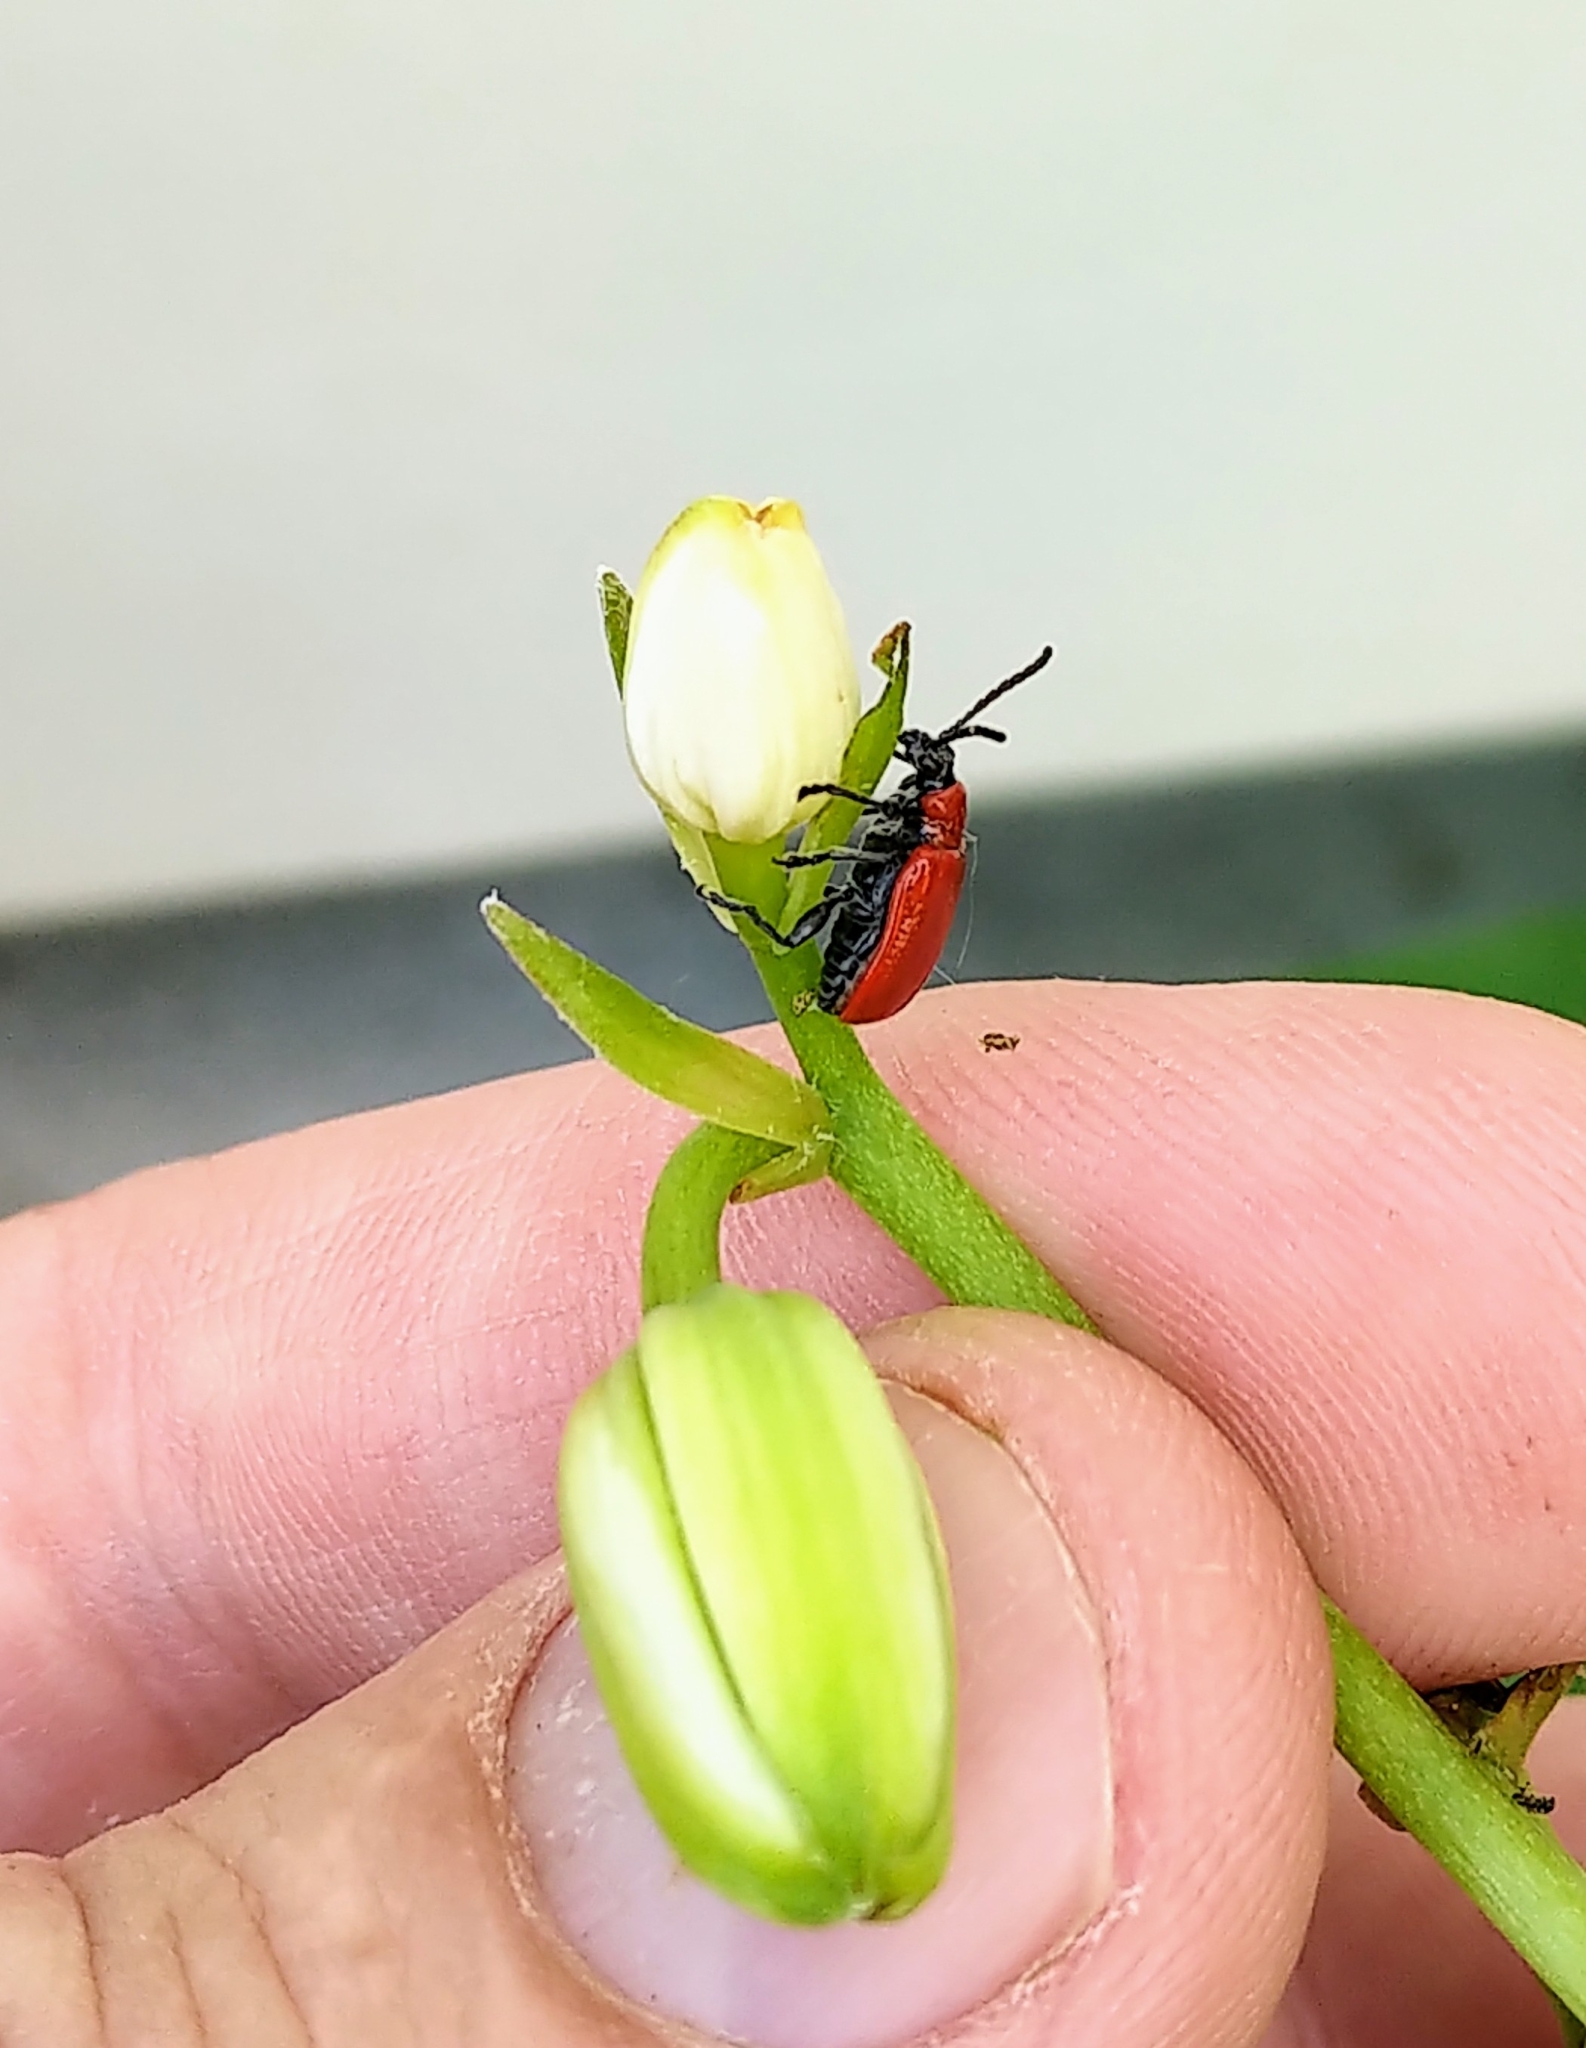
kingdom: Animalia
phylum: Arthropoda
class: Insecta
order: Coleoptera
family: Chrysomelidae
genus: Lilioceris
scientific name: Lilioceris lilii
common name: Lily beetle
